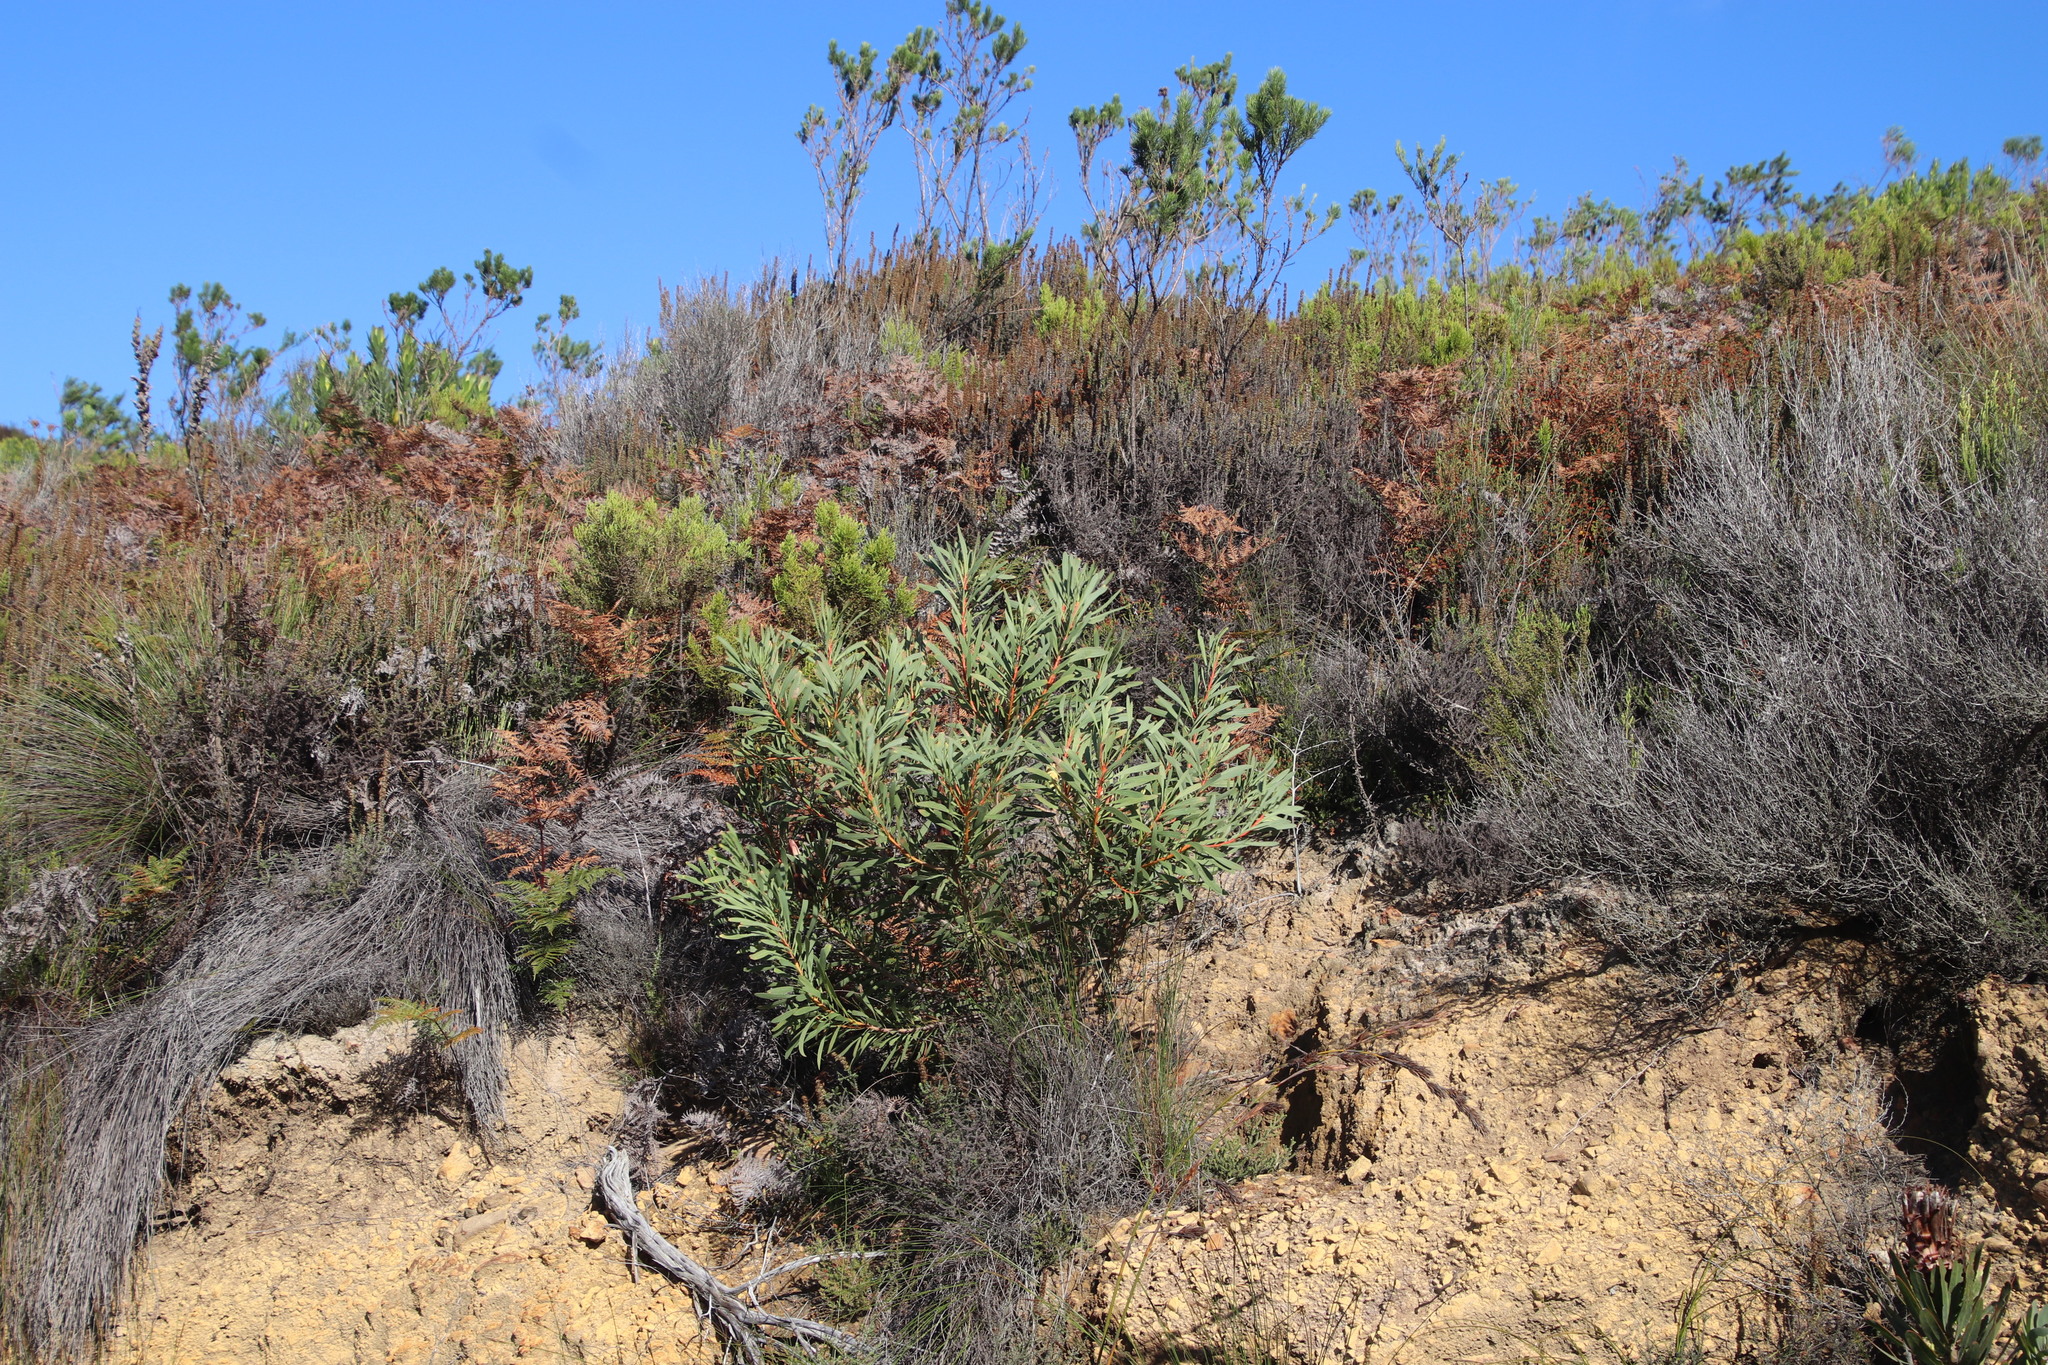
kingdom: Plantae
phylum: Tracheophyta
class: Magnoliopsida
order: Proteales
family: Proteaceae
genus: Protea
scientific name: Protea repens
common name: Sugarbush
